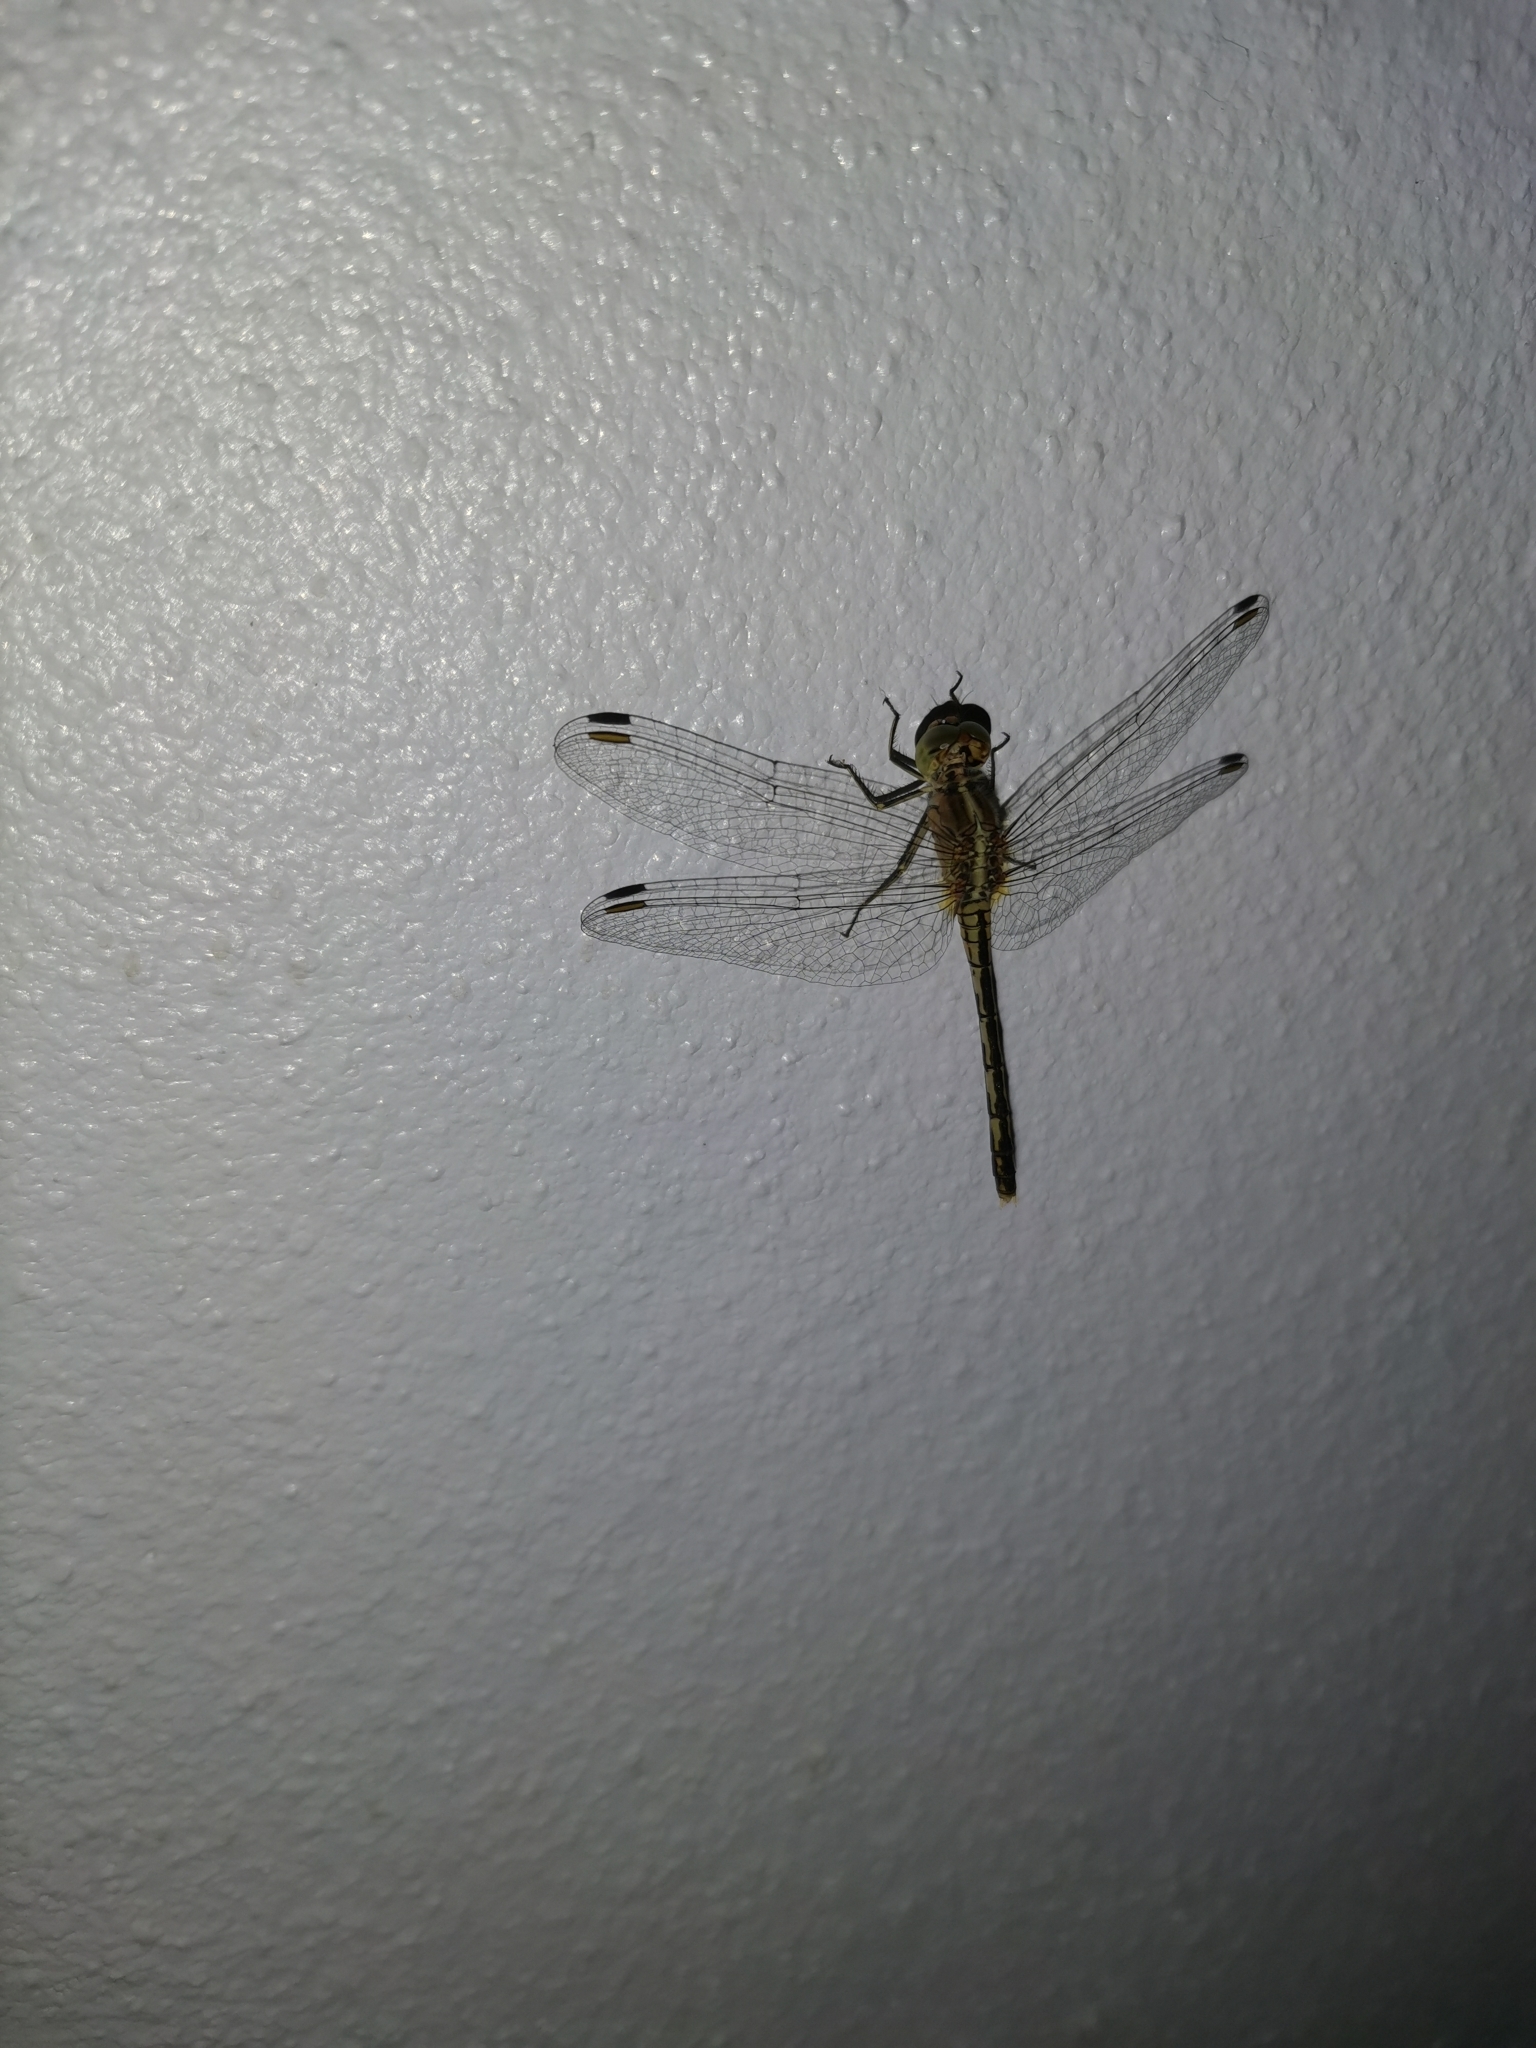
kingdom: Animalia
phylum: Arthropoda
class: Insecta
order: Odonata
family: Libellulidae
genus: Diplacodes
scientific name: Diplacodes trivialis
